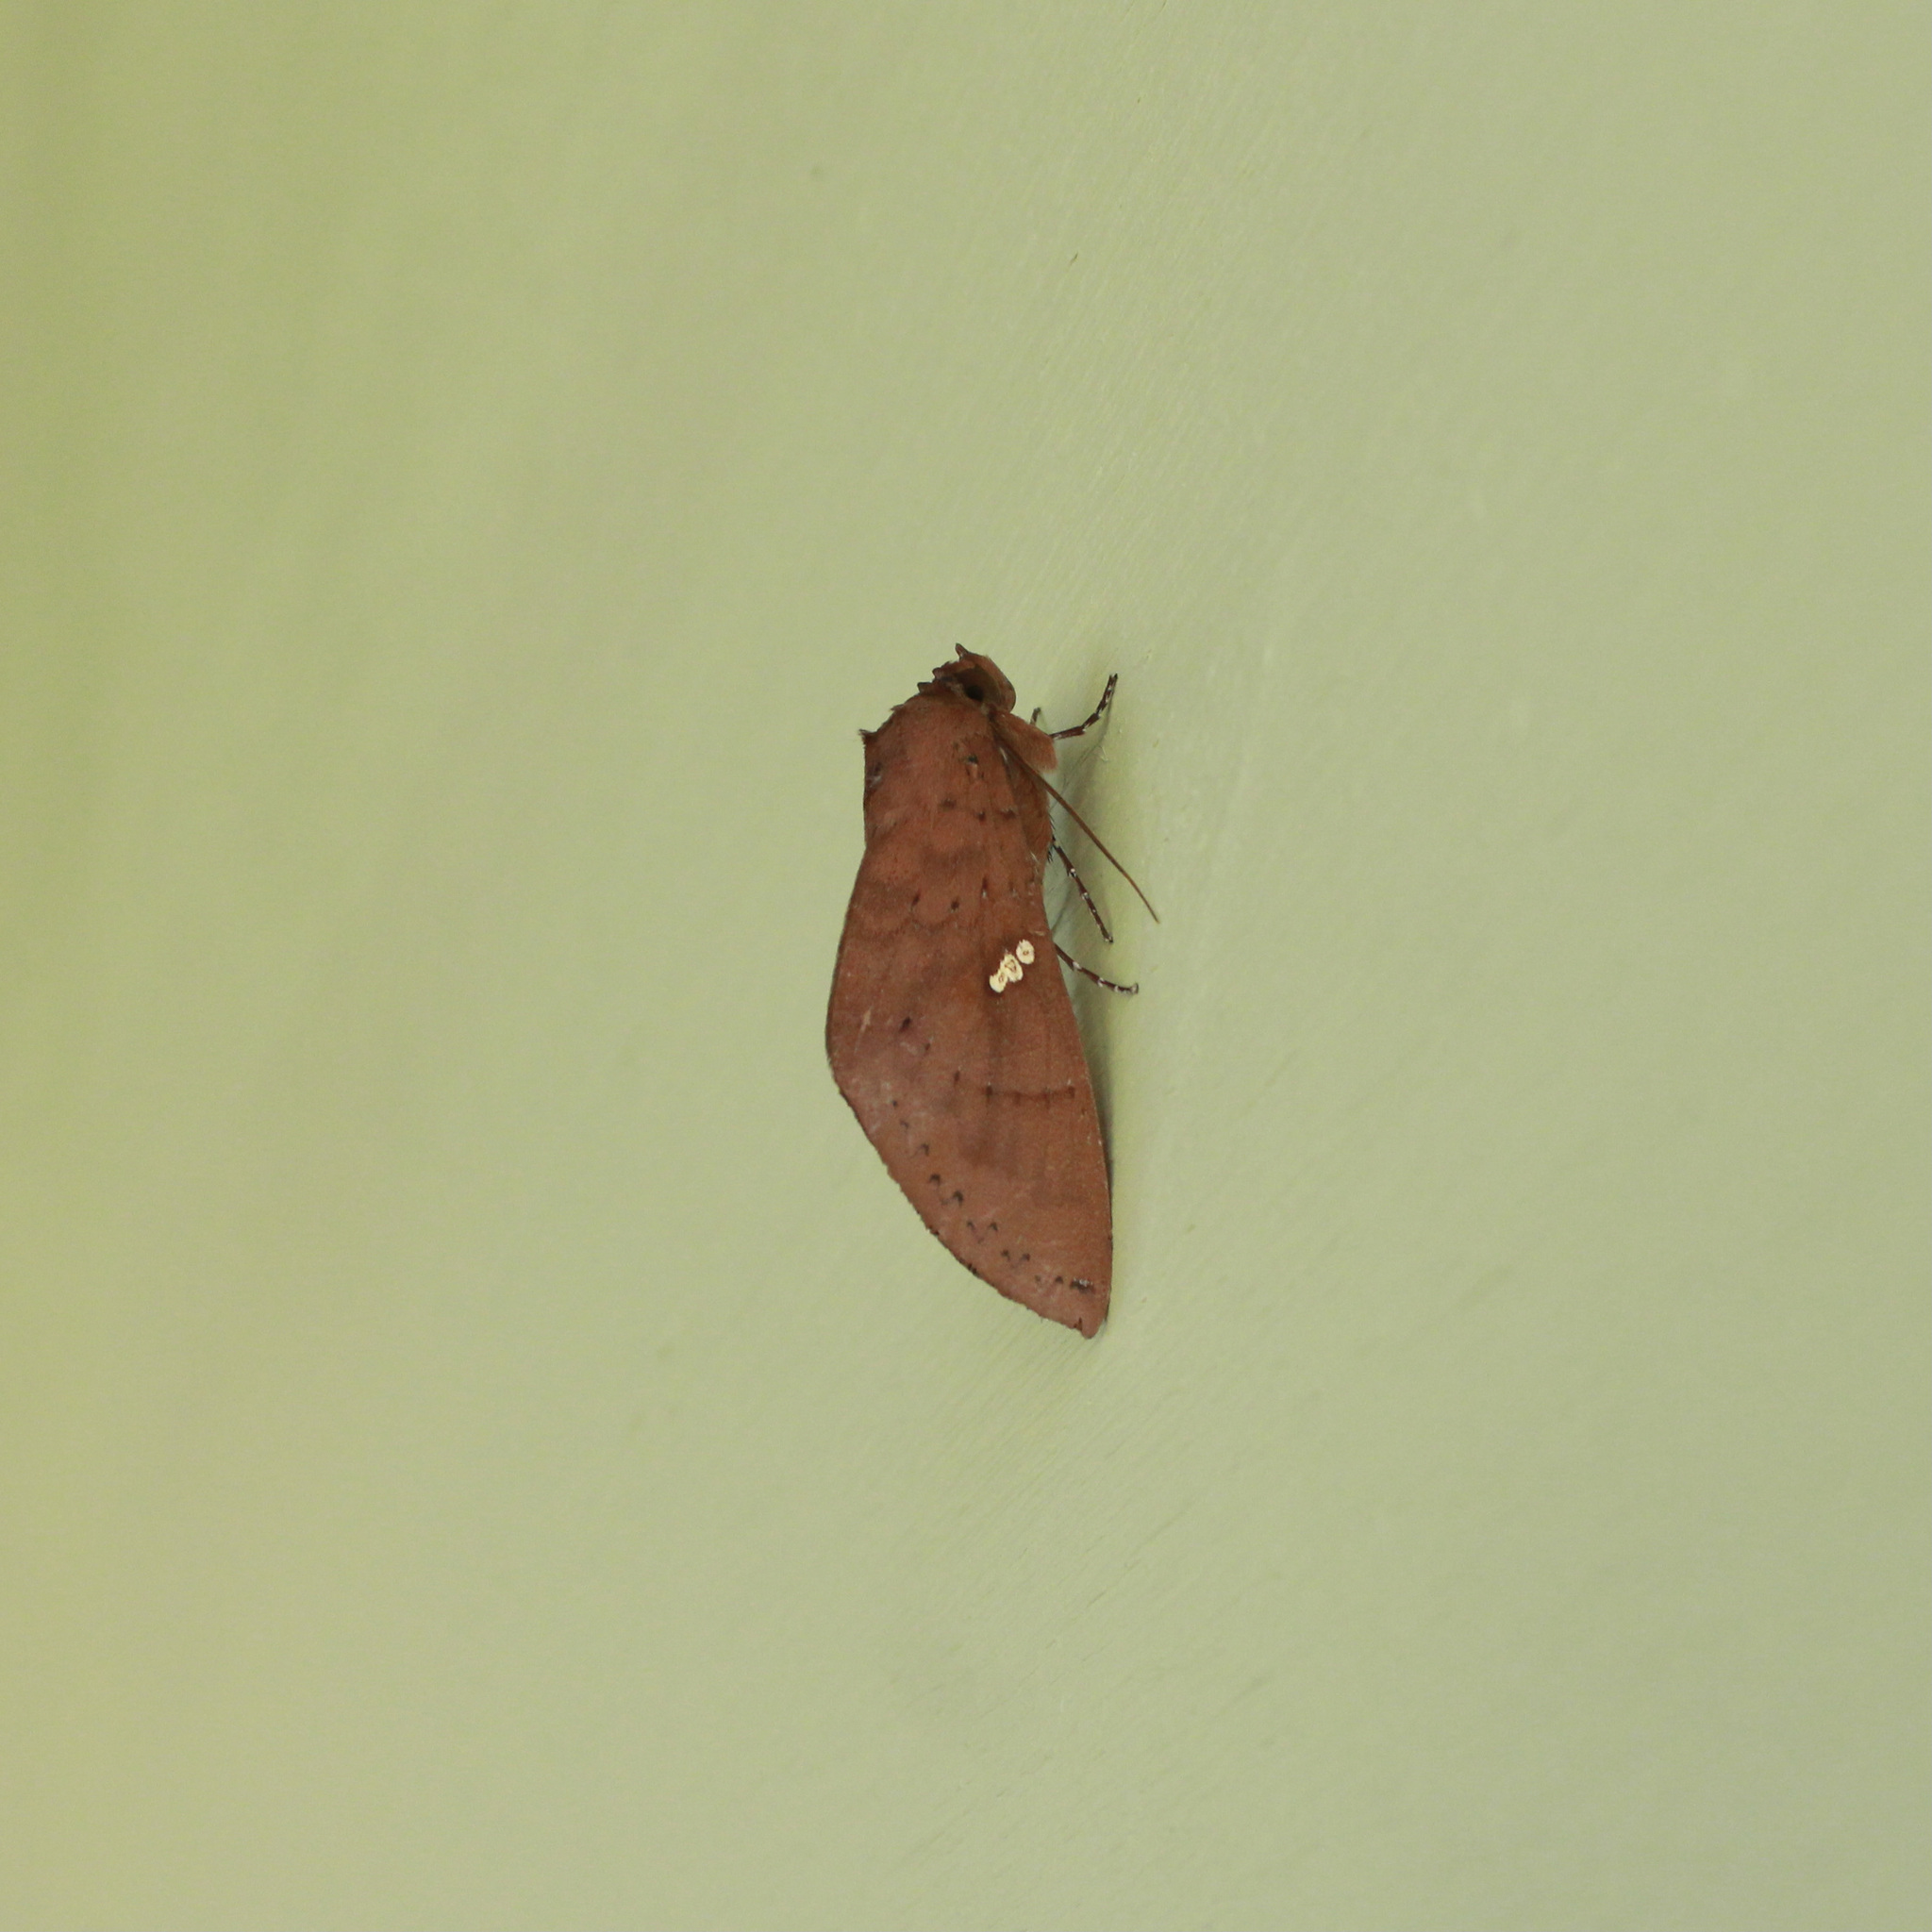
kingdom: Animalia
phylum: Arthropoda
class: Insecta
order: Lepidoptera
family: Notodontidae
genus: Hapigia
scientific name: Hapigia raatzi
